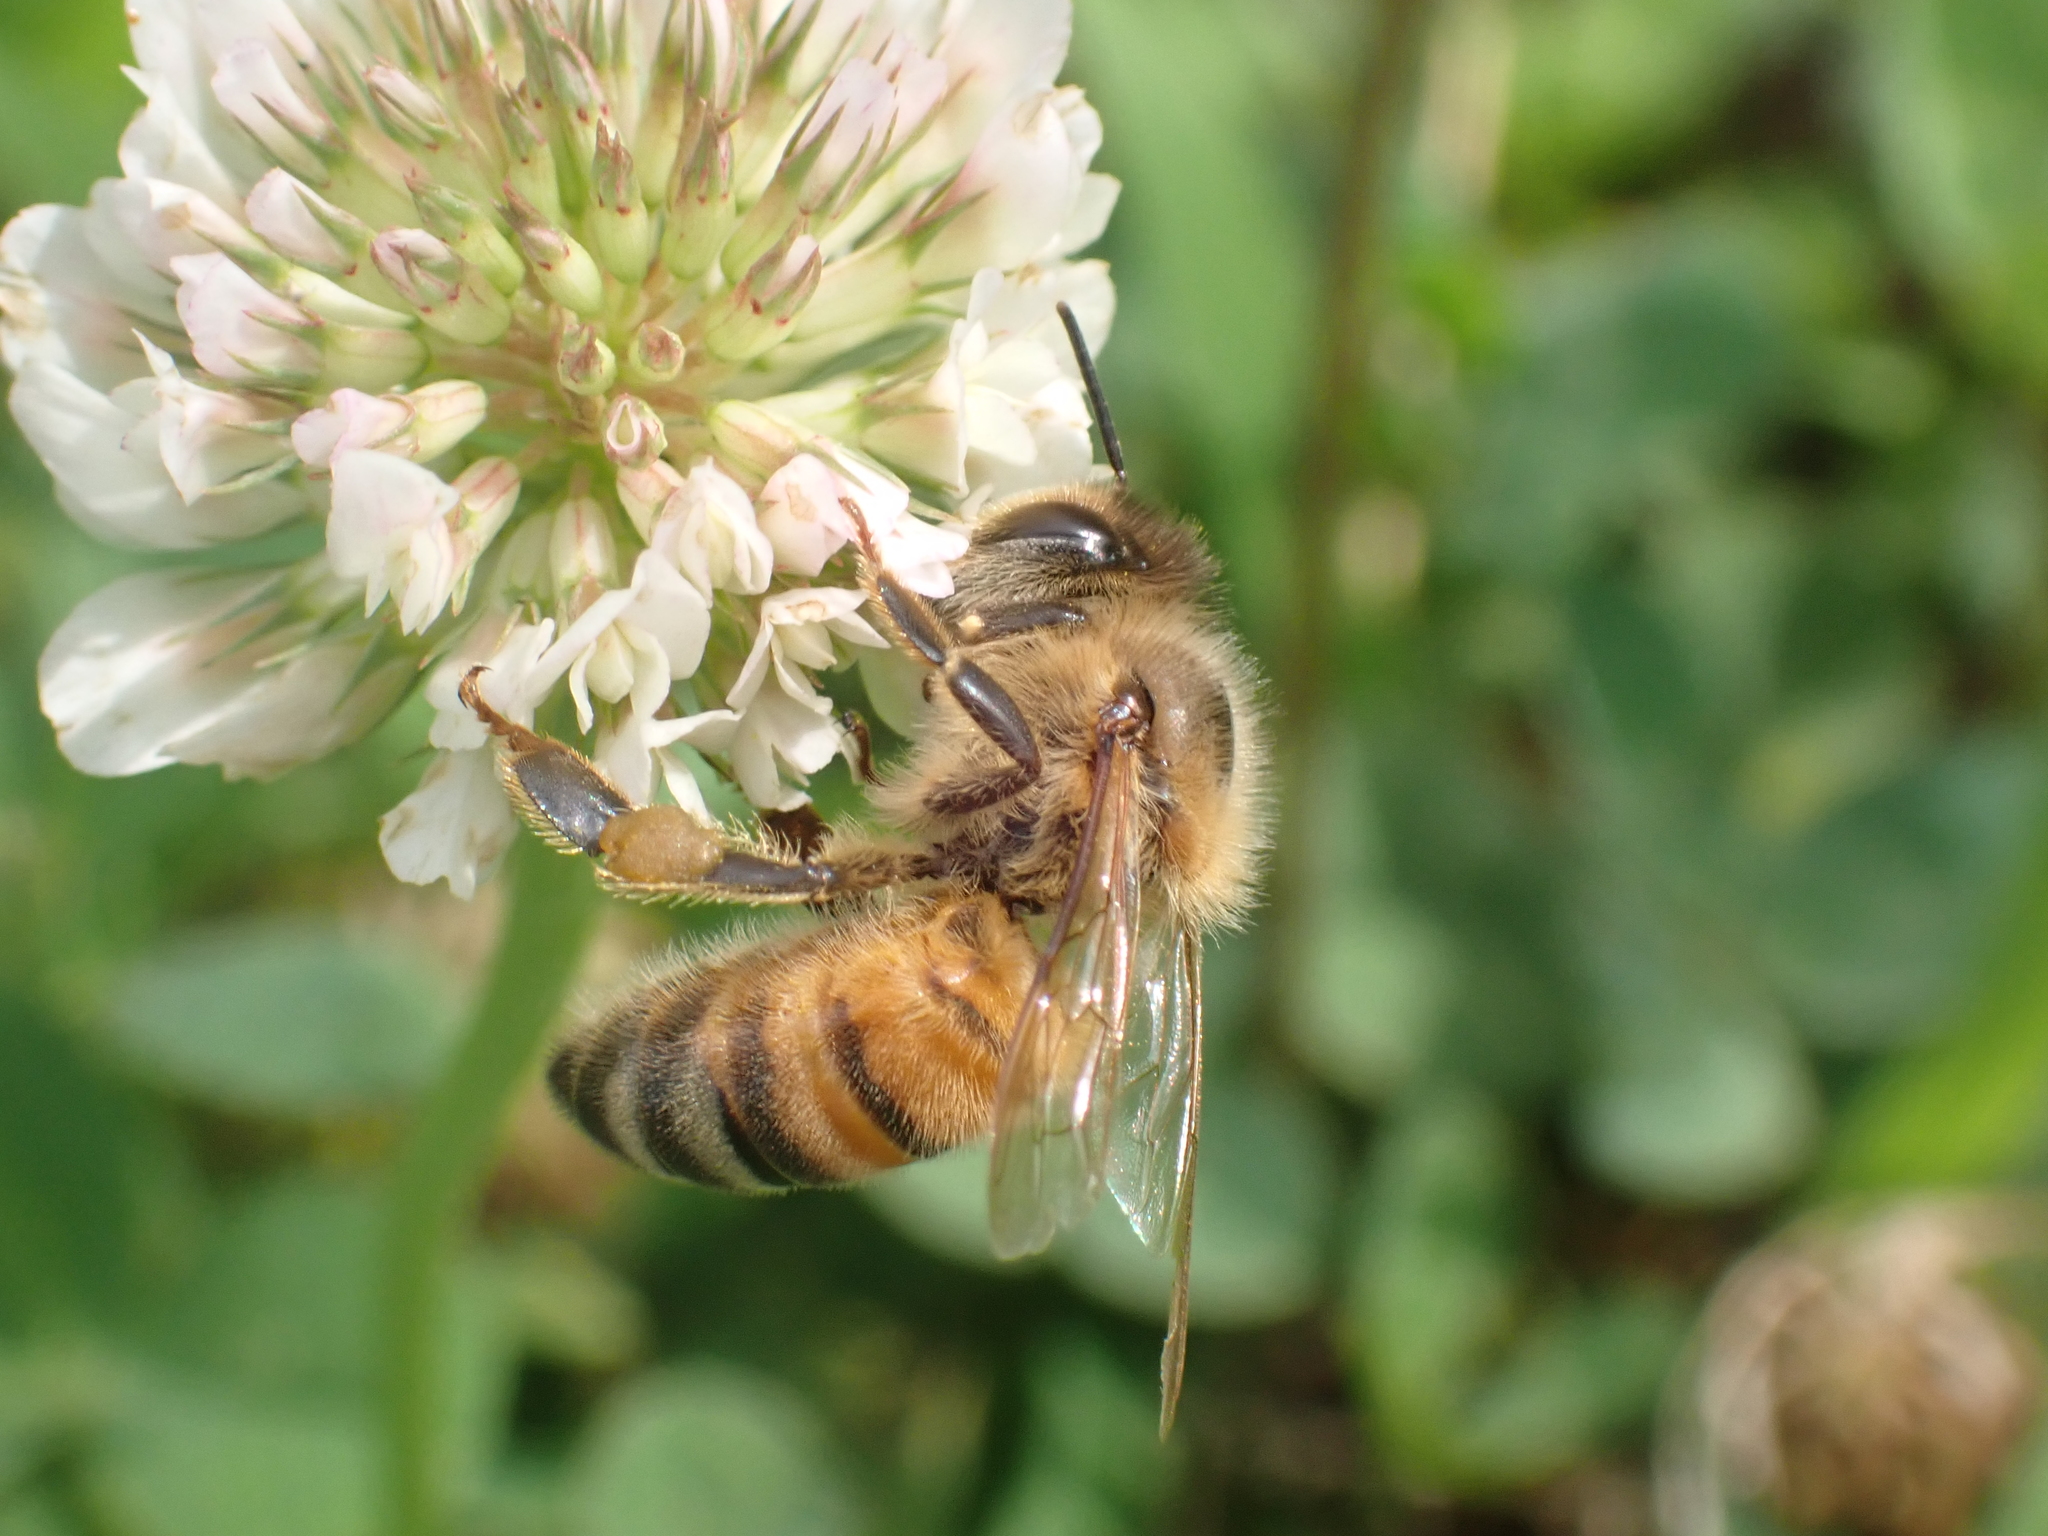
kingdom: Animalia
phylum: Arthropoda
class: Insecta
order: Hymenoptera
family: Apidae
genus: Apis
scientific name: Apis mellifera
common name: Honey bee
